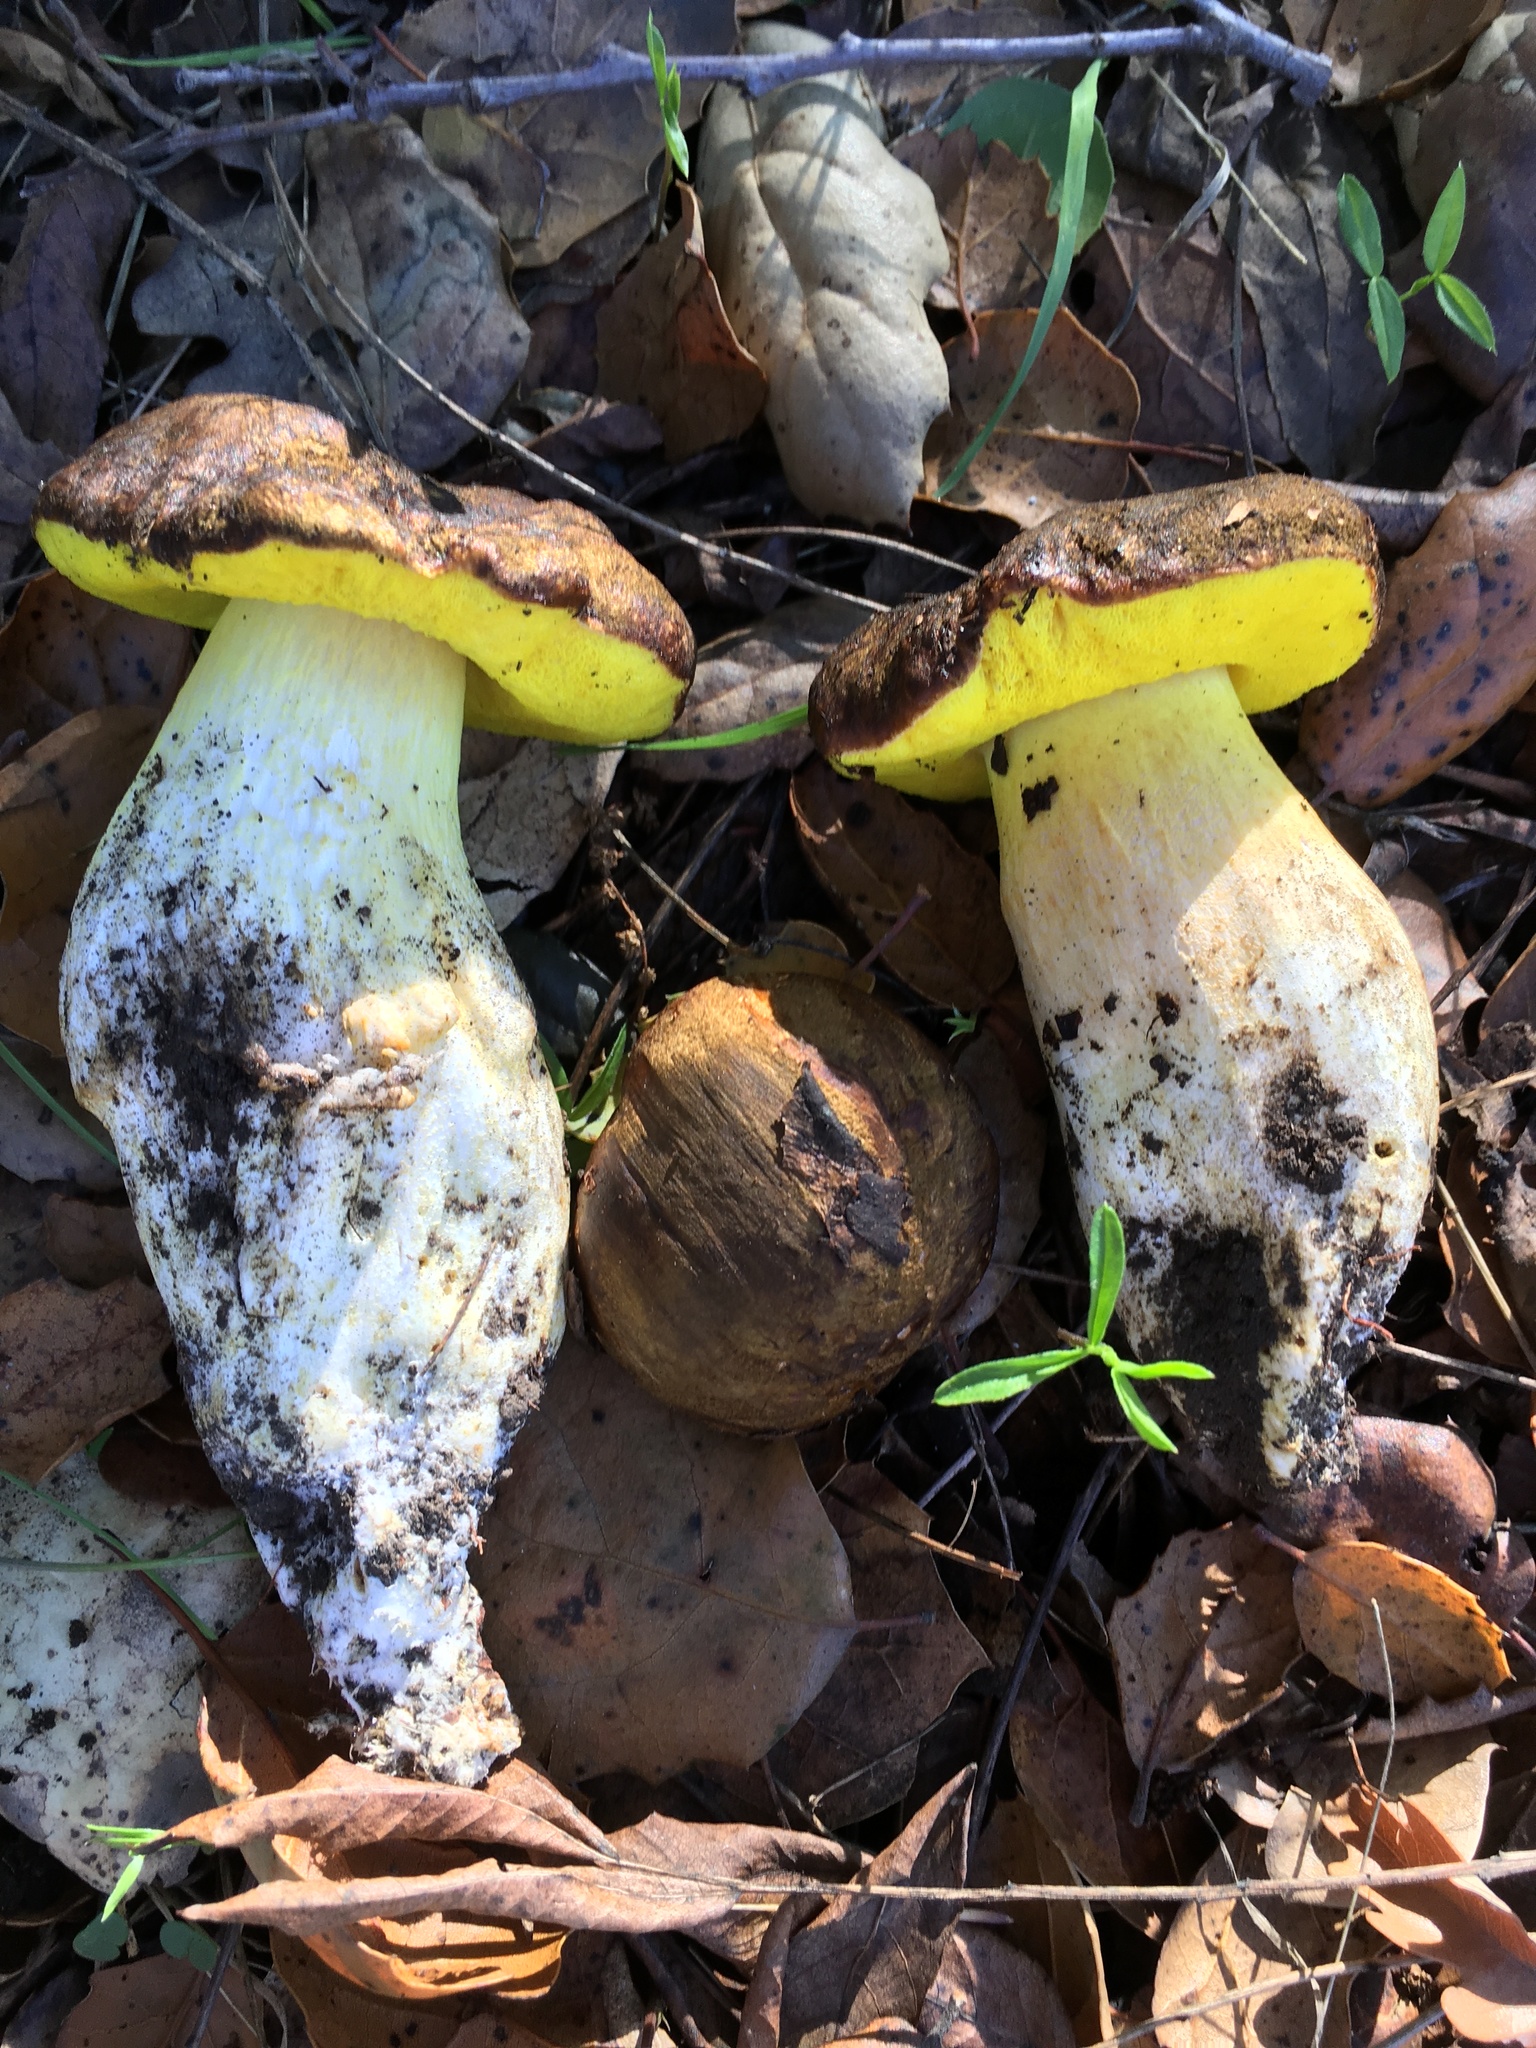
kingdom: Fungi
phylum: Basidiomycota
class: Agaricomycetes
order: Boletales
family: Boletaceae
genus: Aureoboletus
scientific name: Aureoboletus citriniporus
